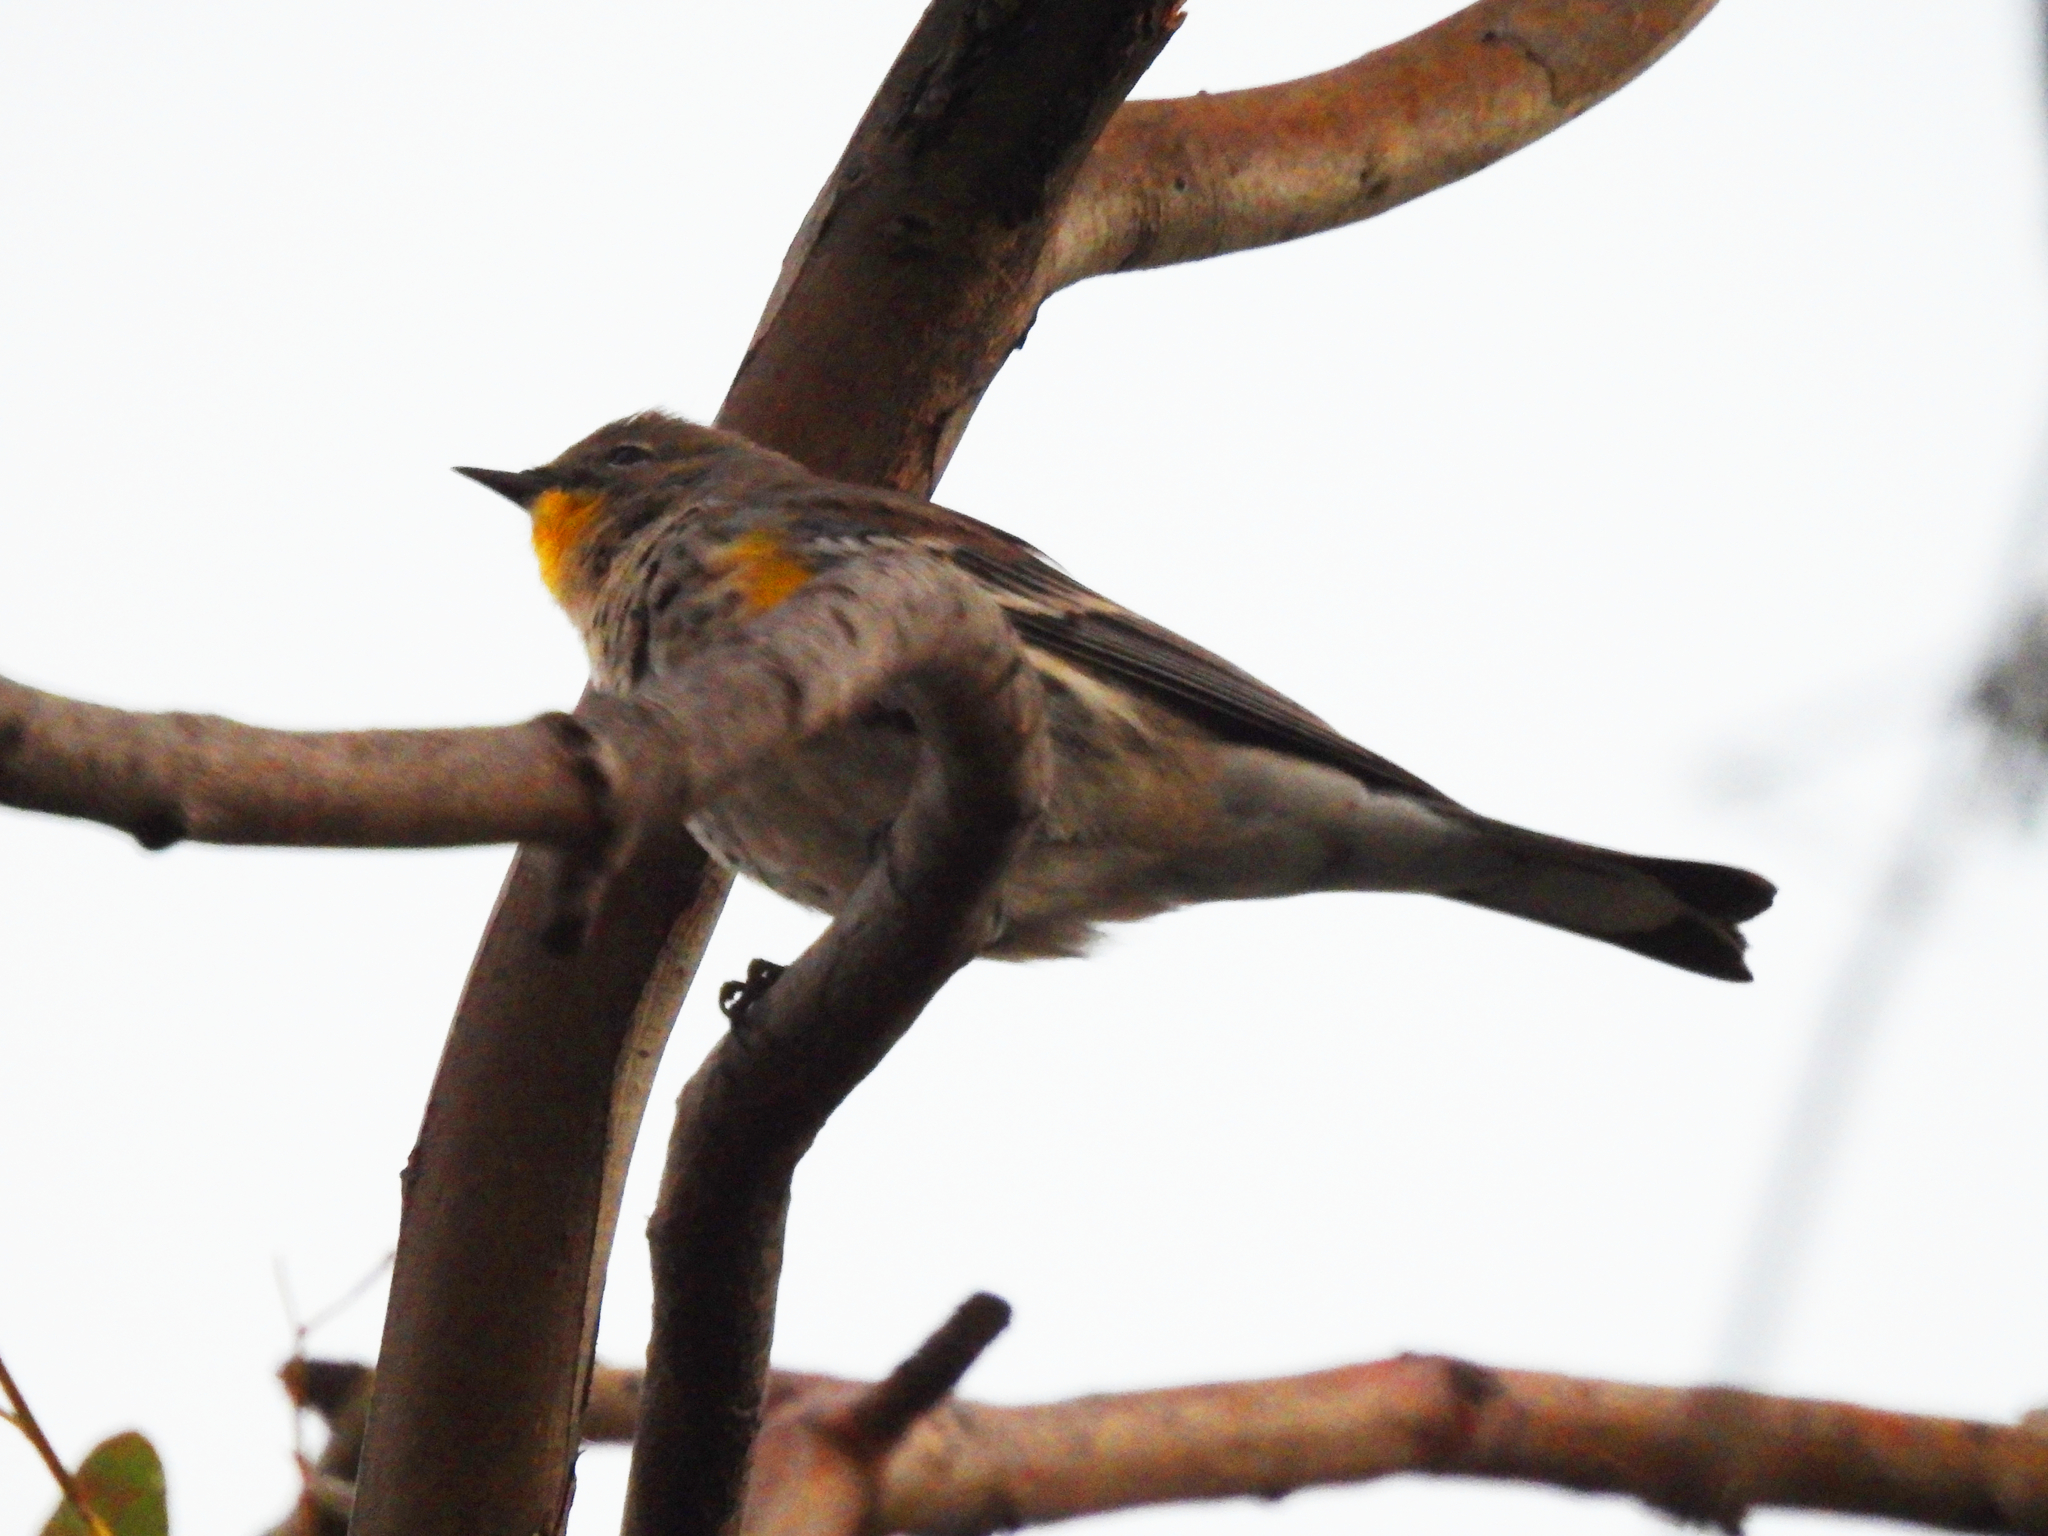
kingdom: Animalia
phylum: Chordata
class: Aves
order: Passeriformes
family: Parulidae
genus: Setophaga
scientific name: Setophaga auduboni
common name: Audubon's warbler
